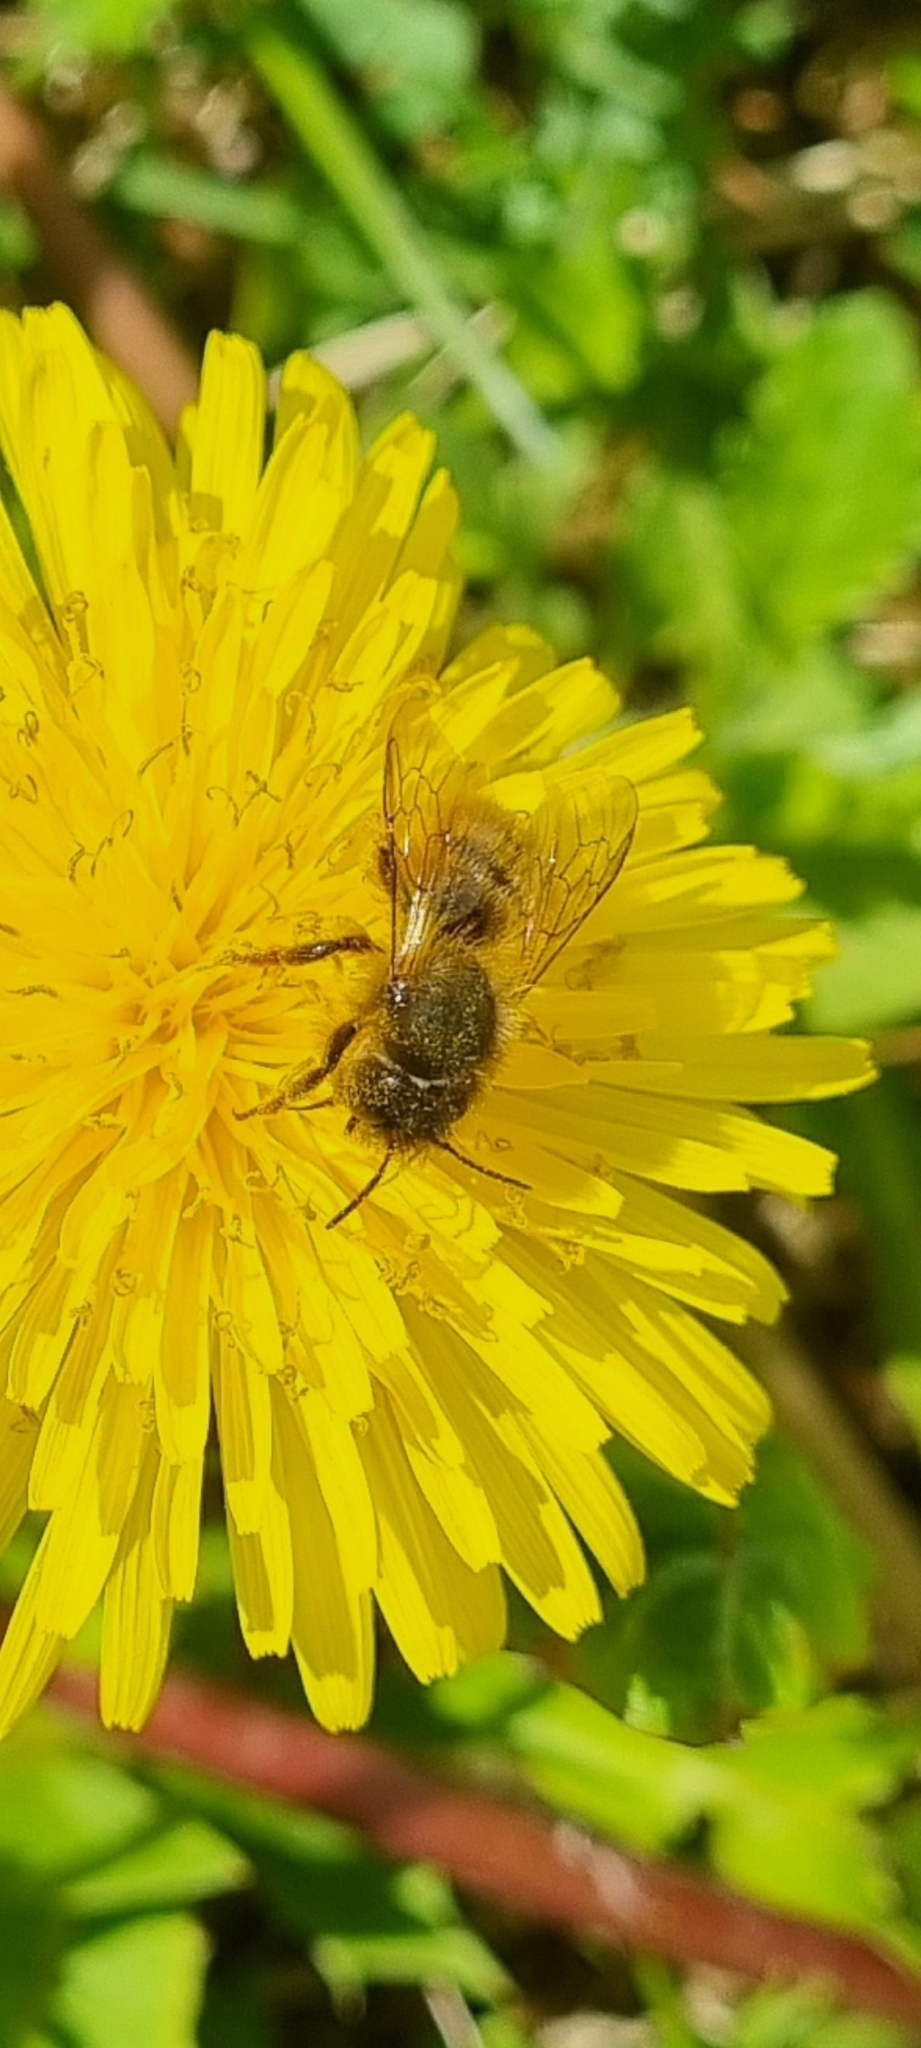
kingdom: Animalia
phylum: Arthropoda
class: Insecta
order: Hymenoptera
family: Megachilidae
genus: Osmia
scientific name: Osmia bicornis
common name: Red mason bee
